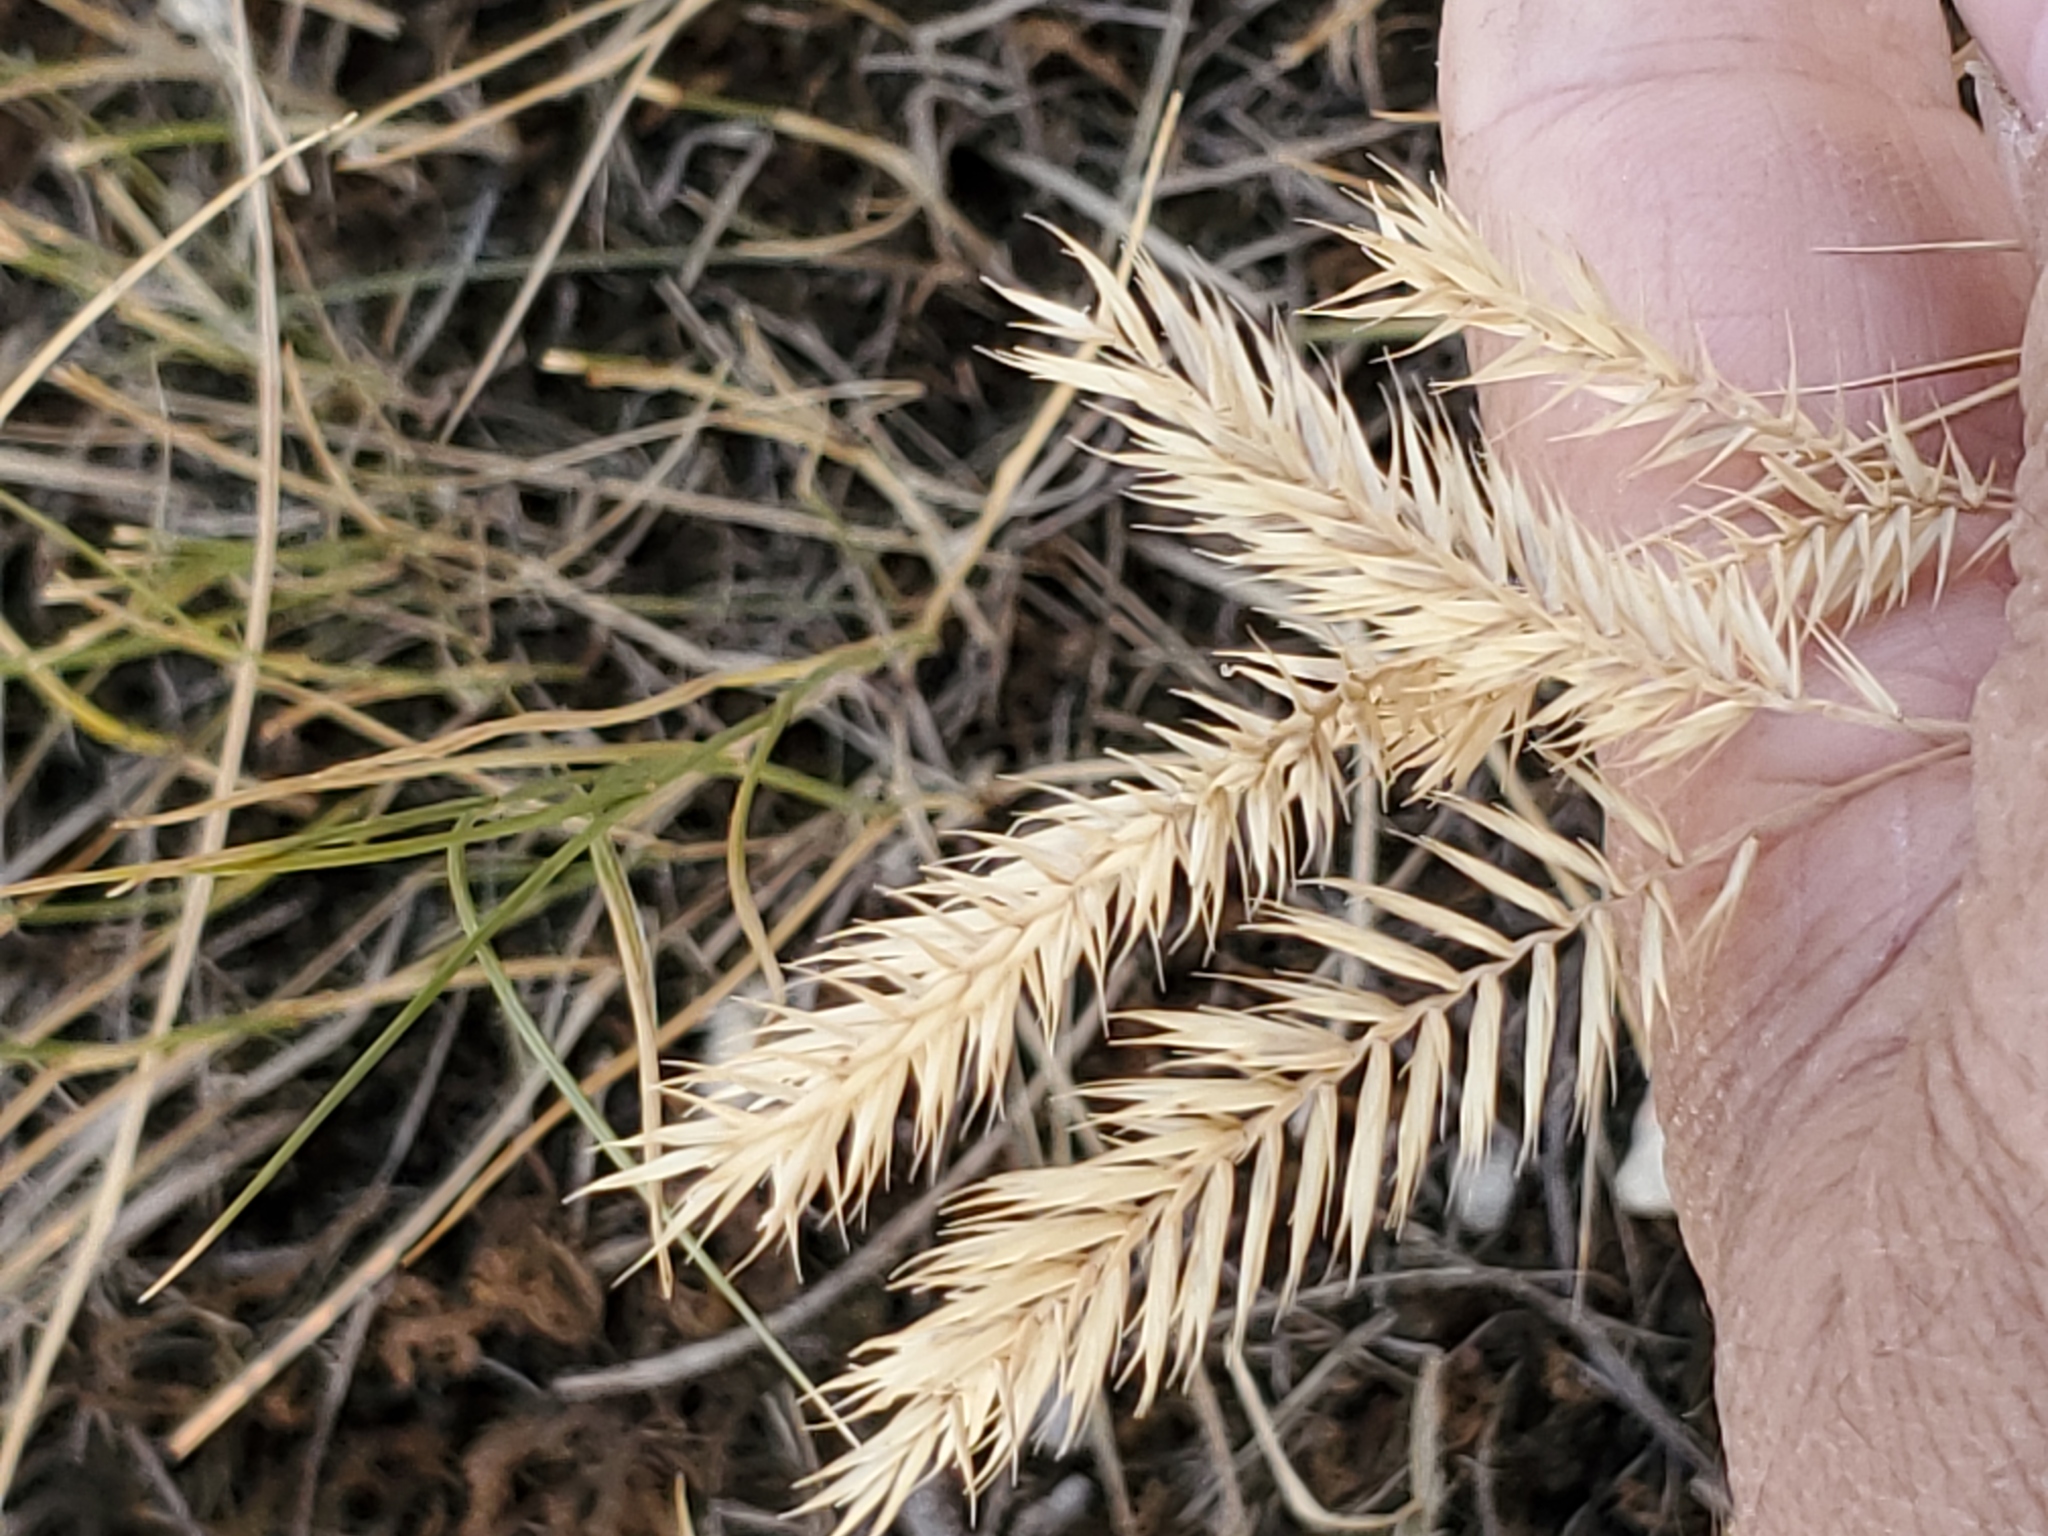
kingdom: Plantae
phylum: Tracheophyta
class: Liliopsida
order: Poales
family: Poaceae
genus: Agropyron
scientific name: Agropyron cristatum
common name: Crested wheatgrass
